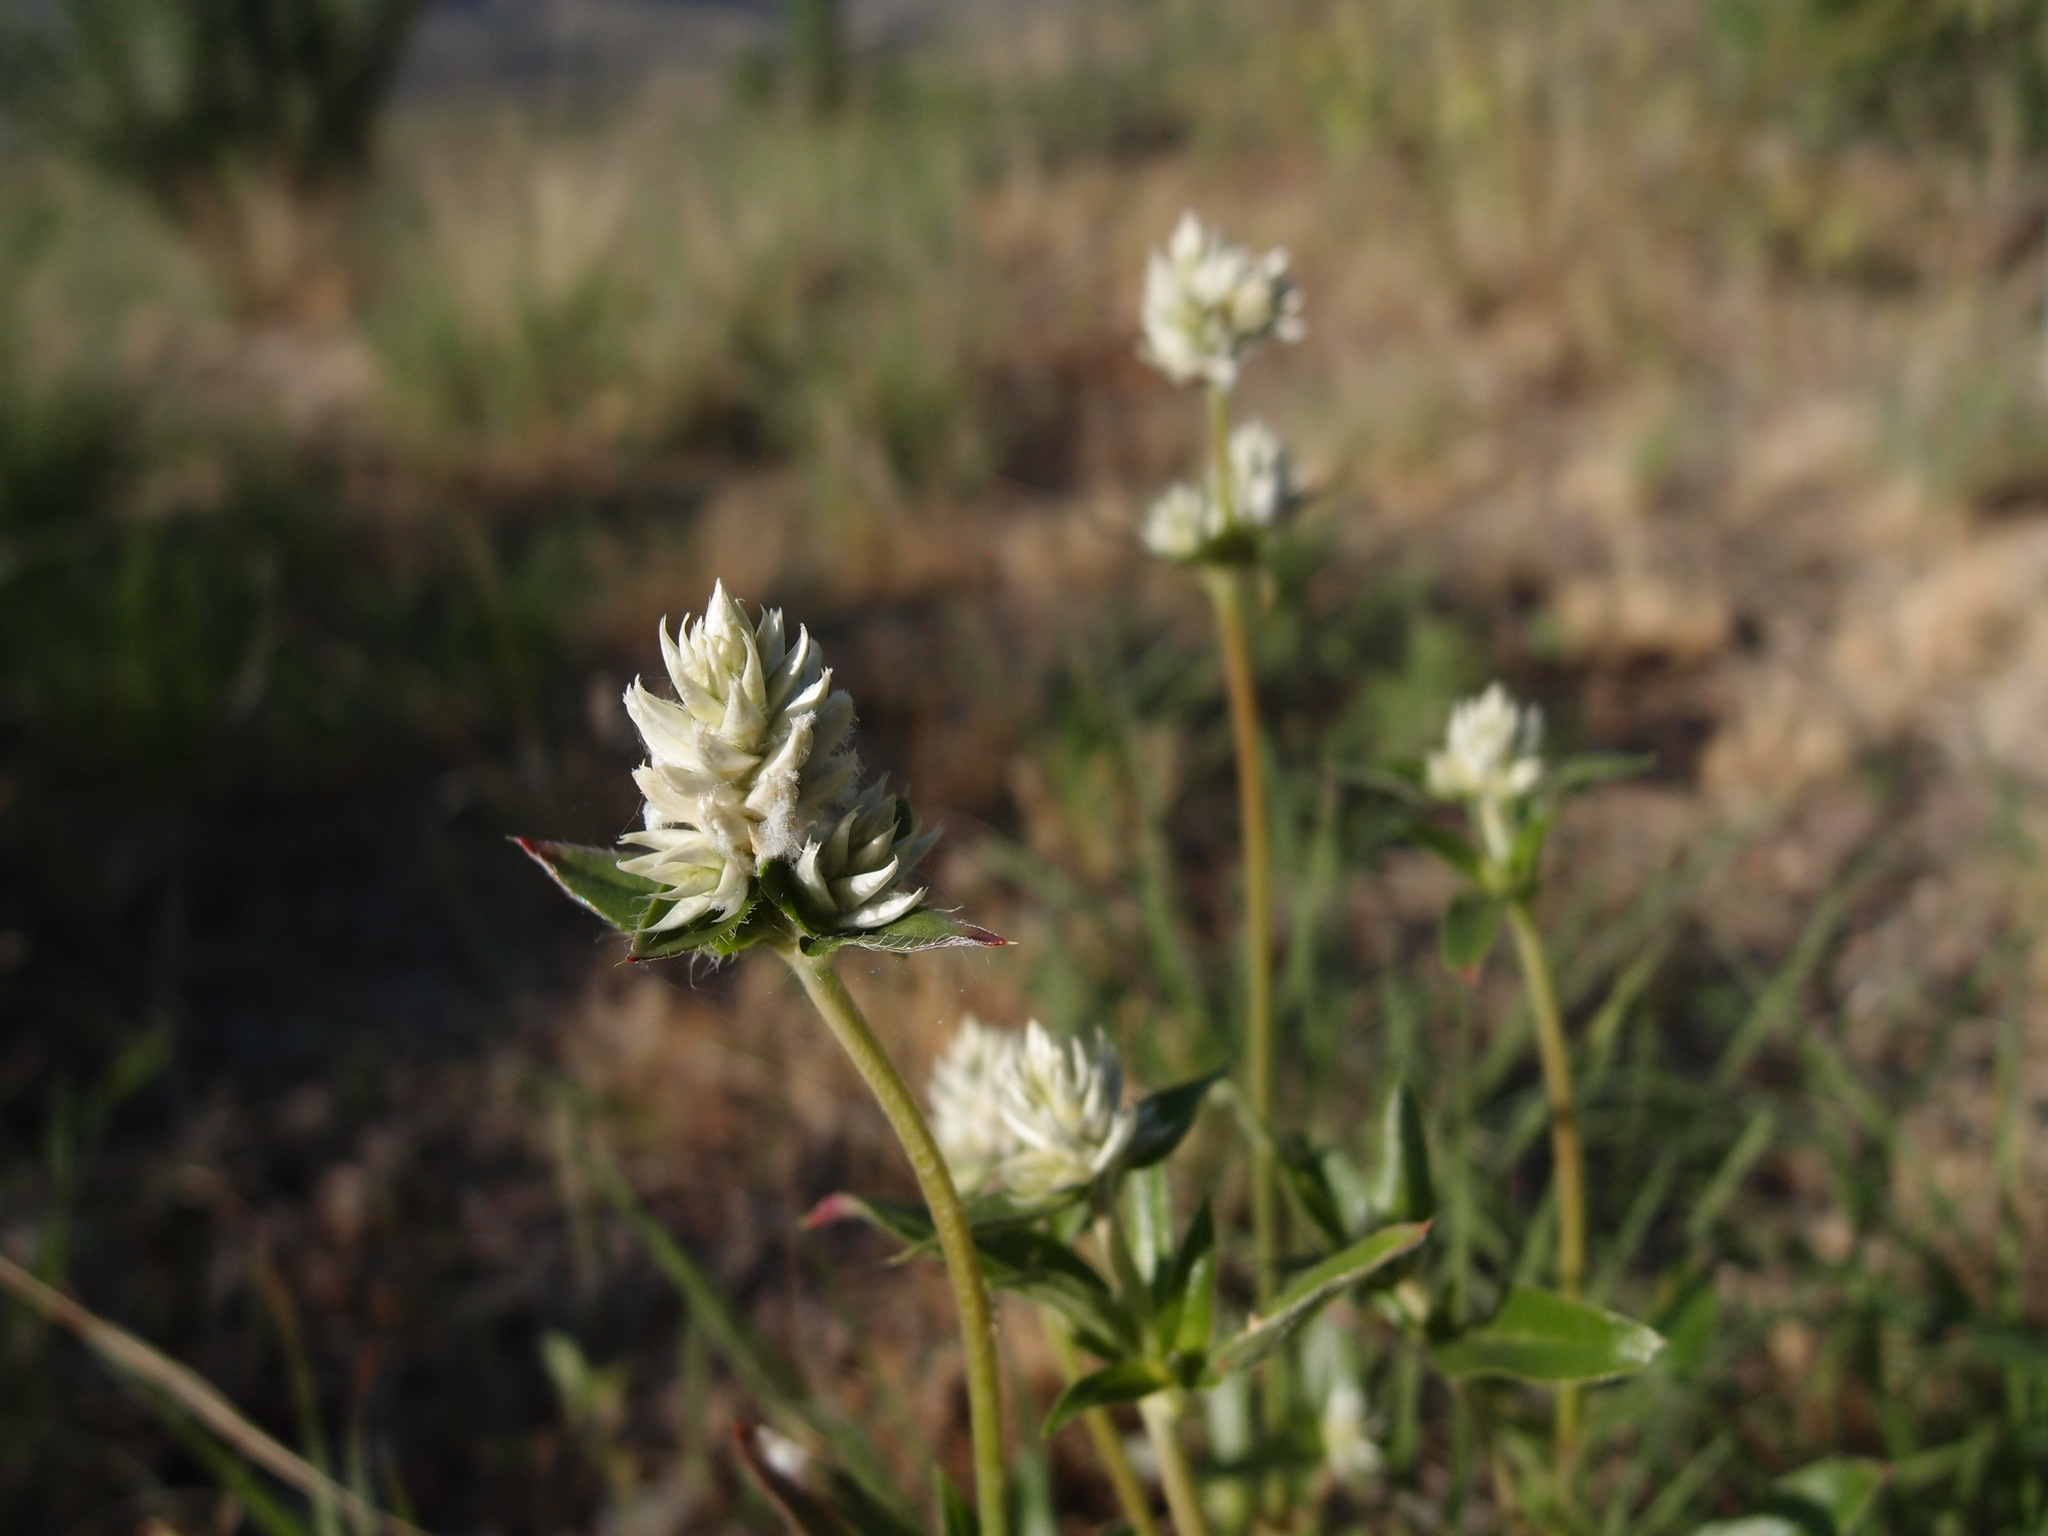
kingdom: Plantae
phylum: Tracheophyta
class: Magnoliopsida
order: Caryophyllales
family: Amaranthaceae
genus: Gomphrena
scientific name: Gomphrena sonorae
